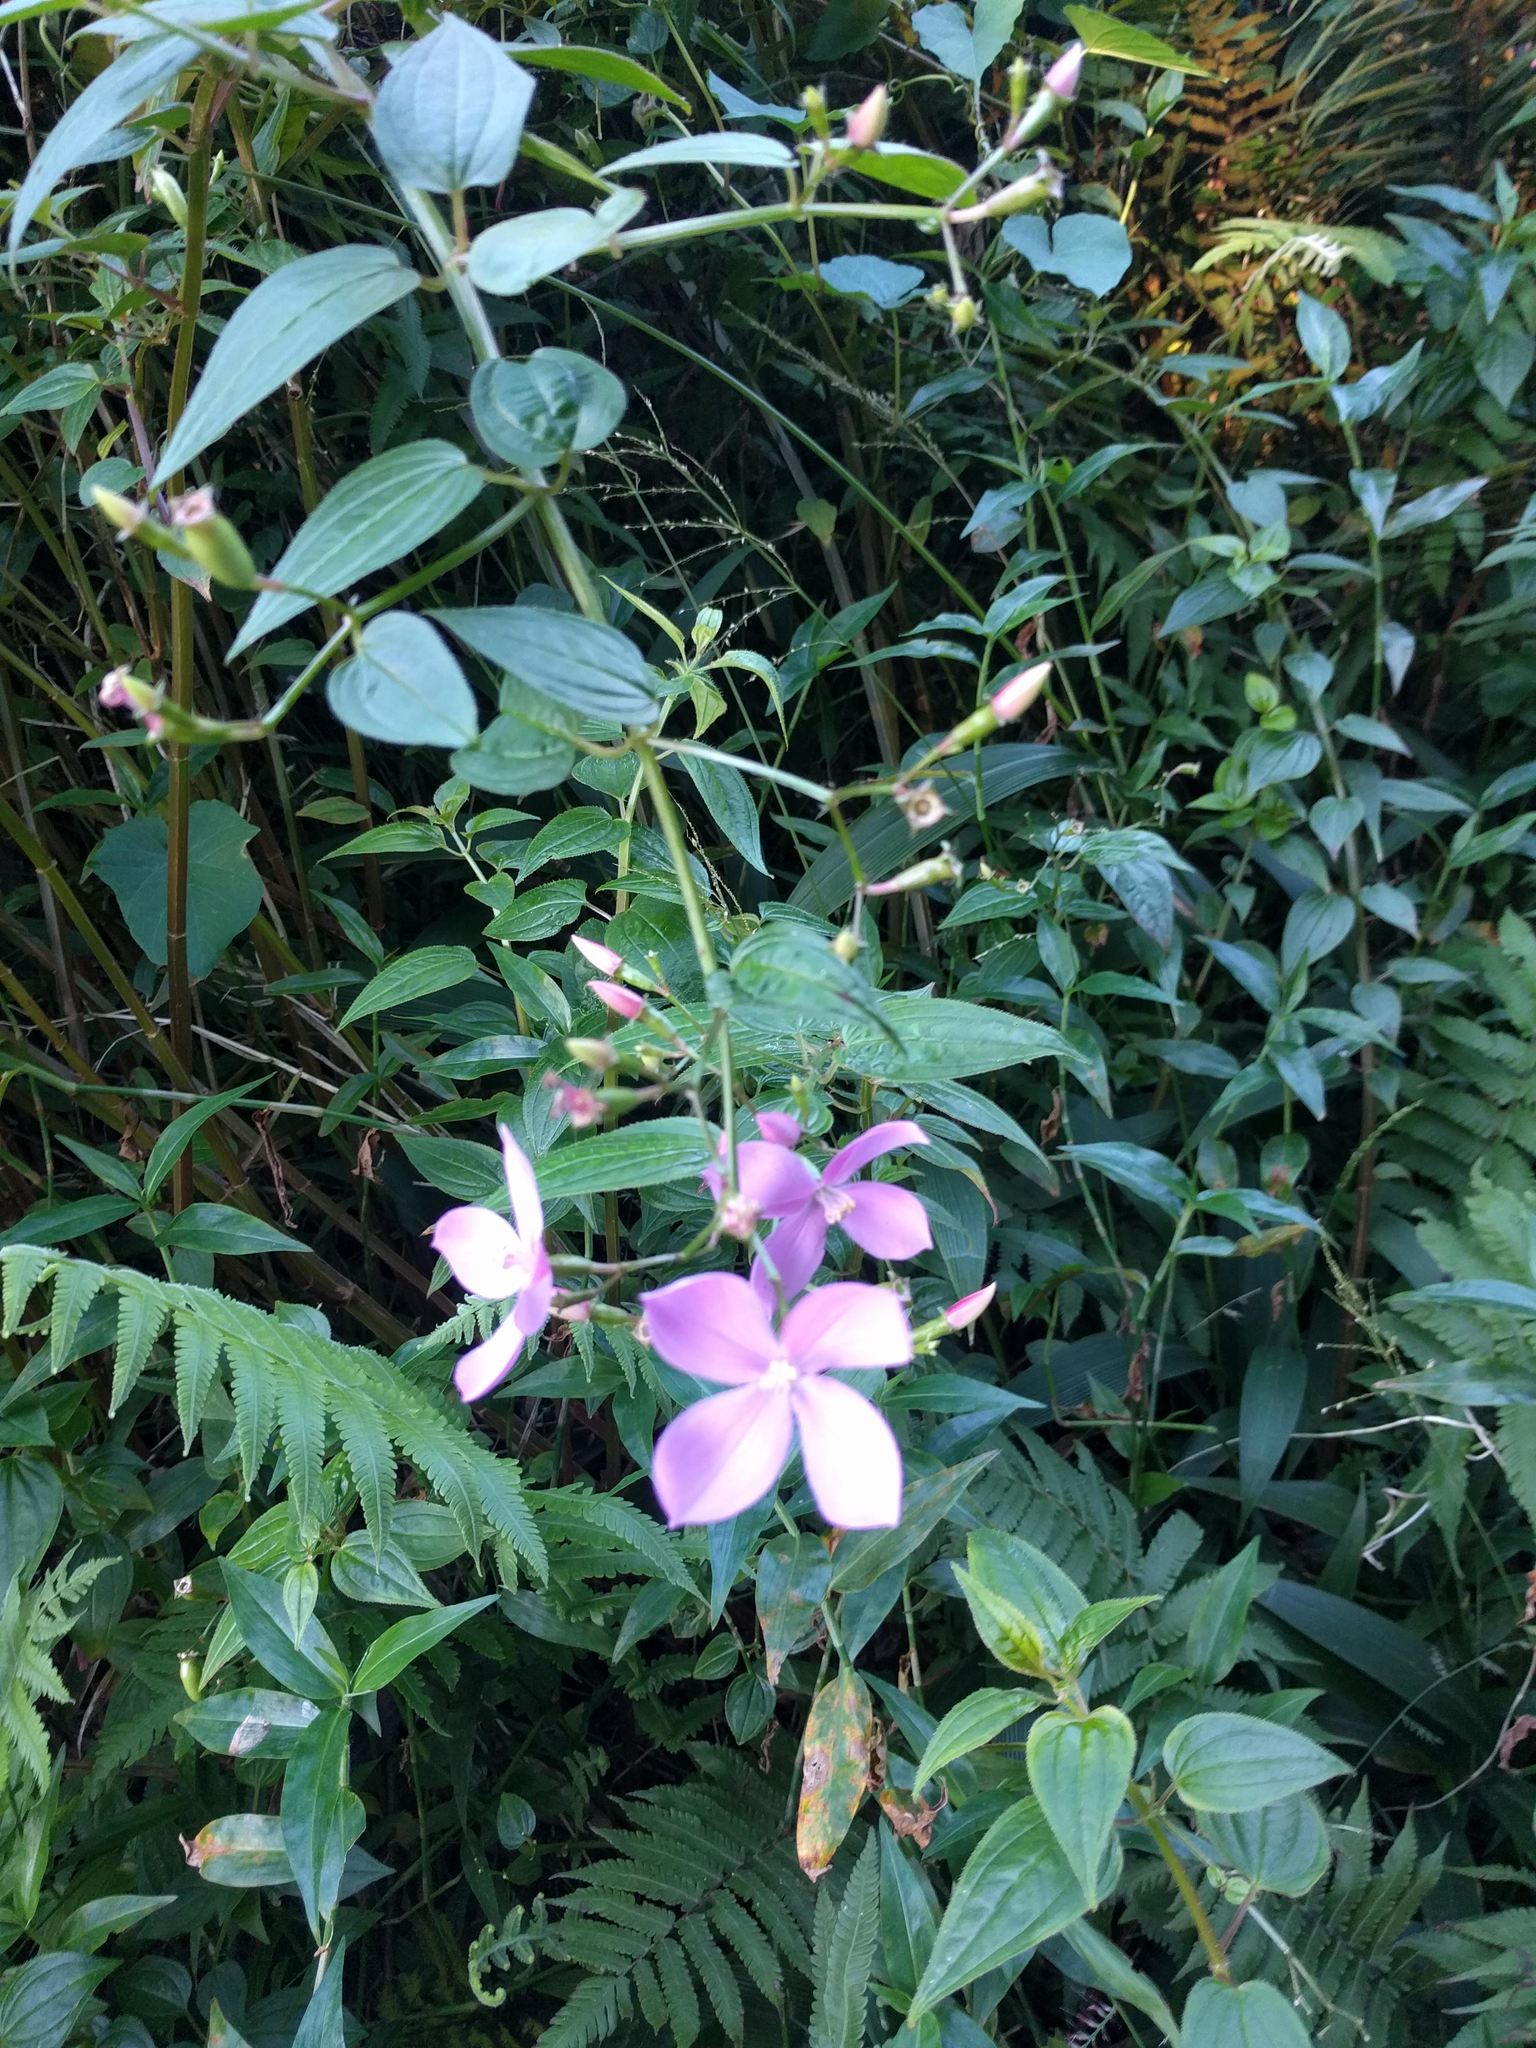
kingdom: Plantae
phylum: Tracheophyta
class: Magnoliopsida
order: Myrtales
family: Melastomataceae
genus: Arthrostemma
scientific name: Arthrostemma ciliatum
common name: Everblooming eavender
